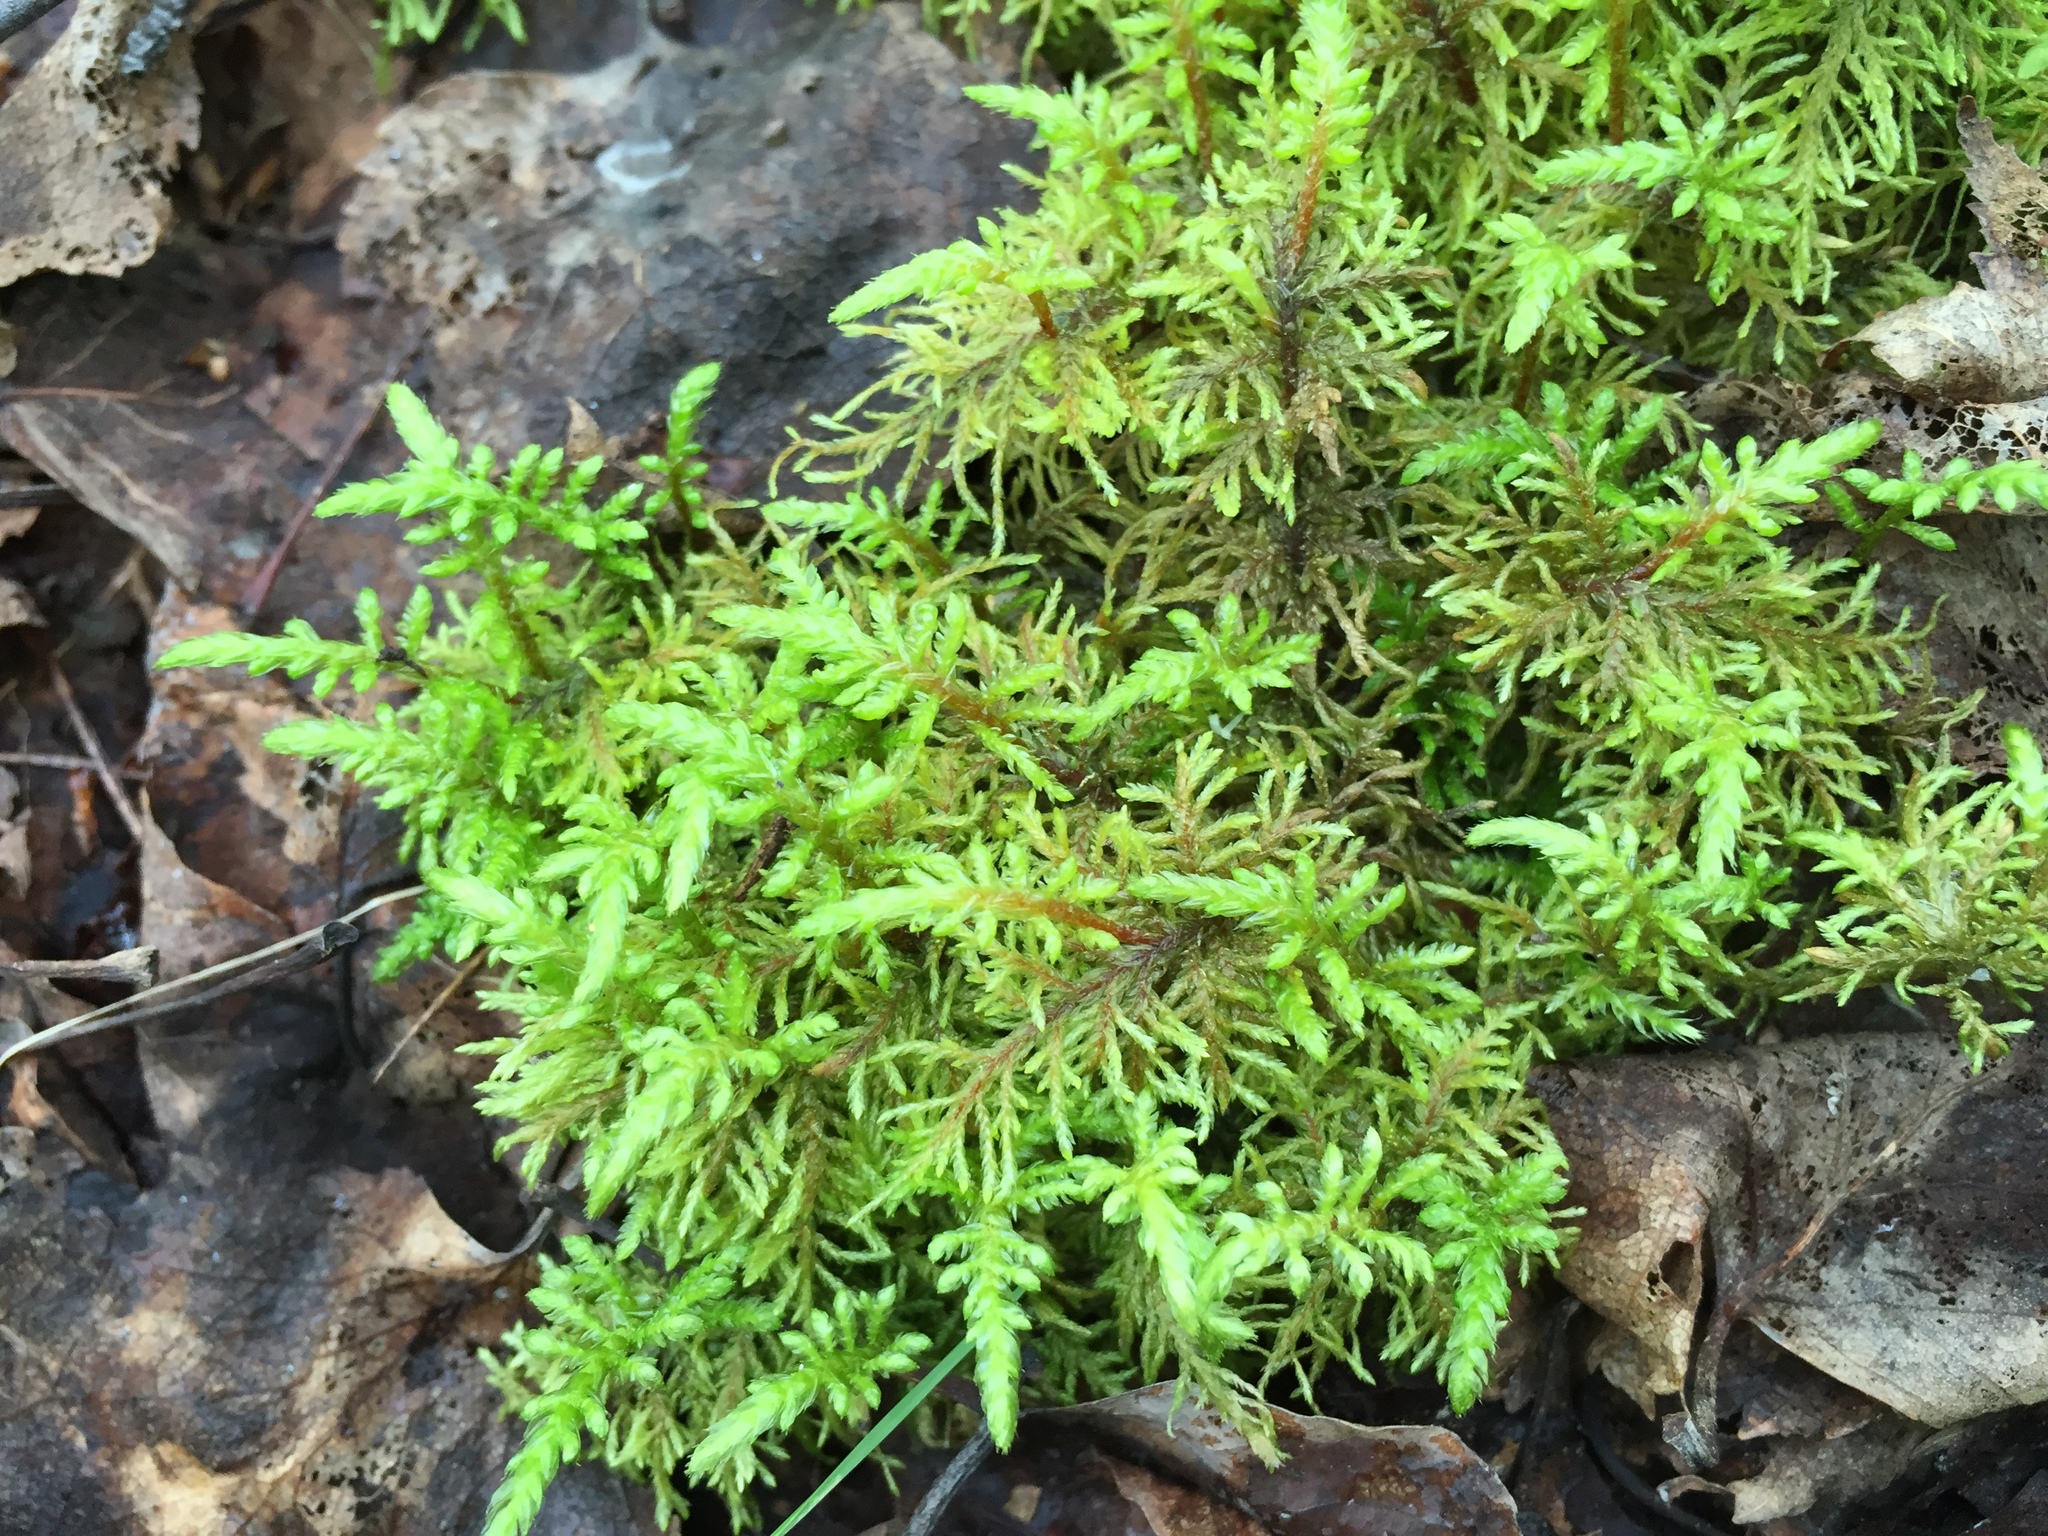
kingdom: Plantae
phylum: Bryophyta
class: Bryopsida
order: Hypnales
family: Hylocomiaceae
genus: Hylocomium
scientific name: Hylocomium splendens
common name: Stairstep moss
